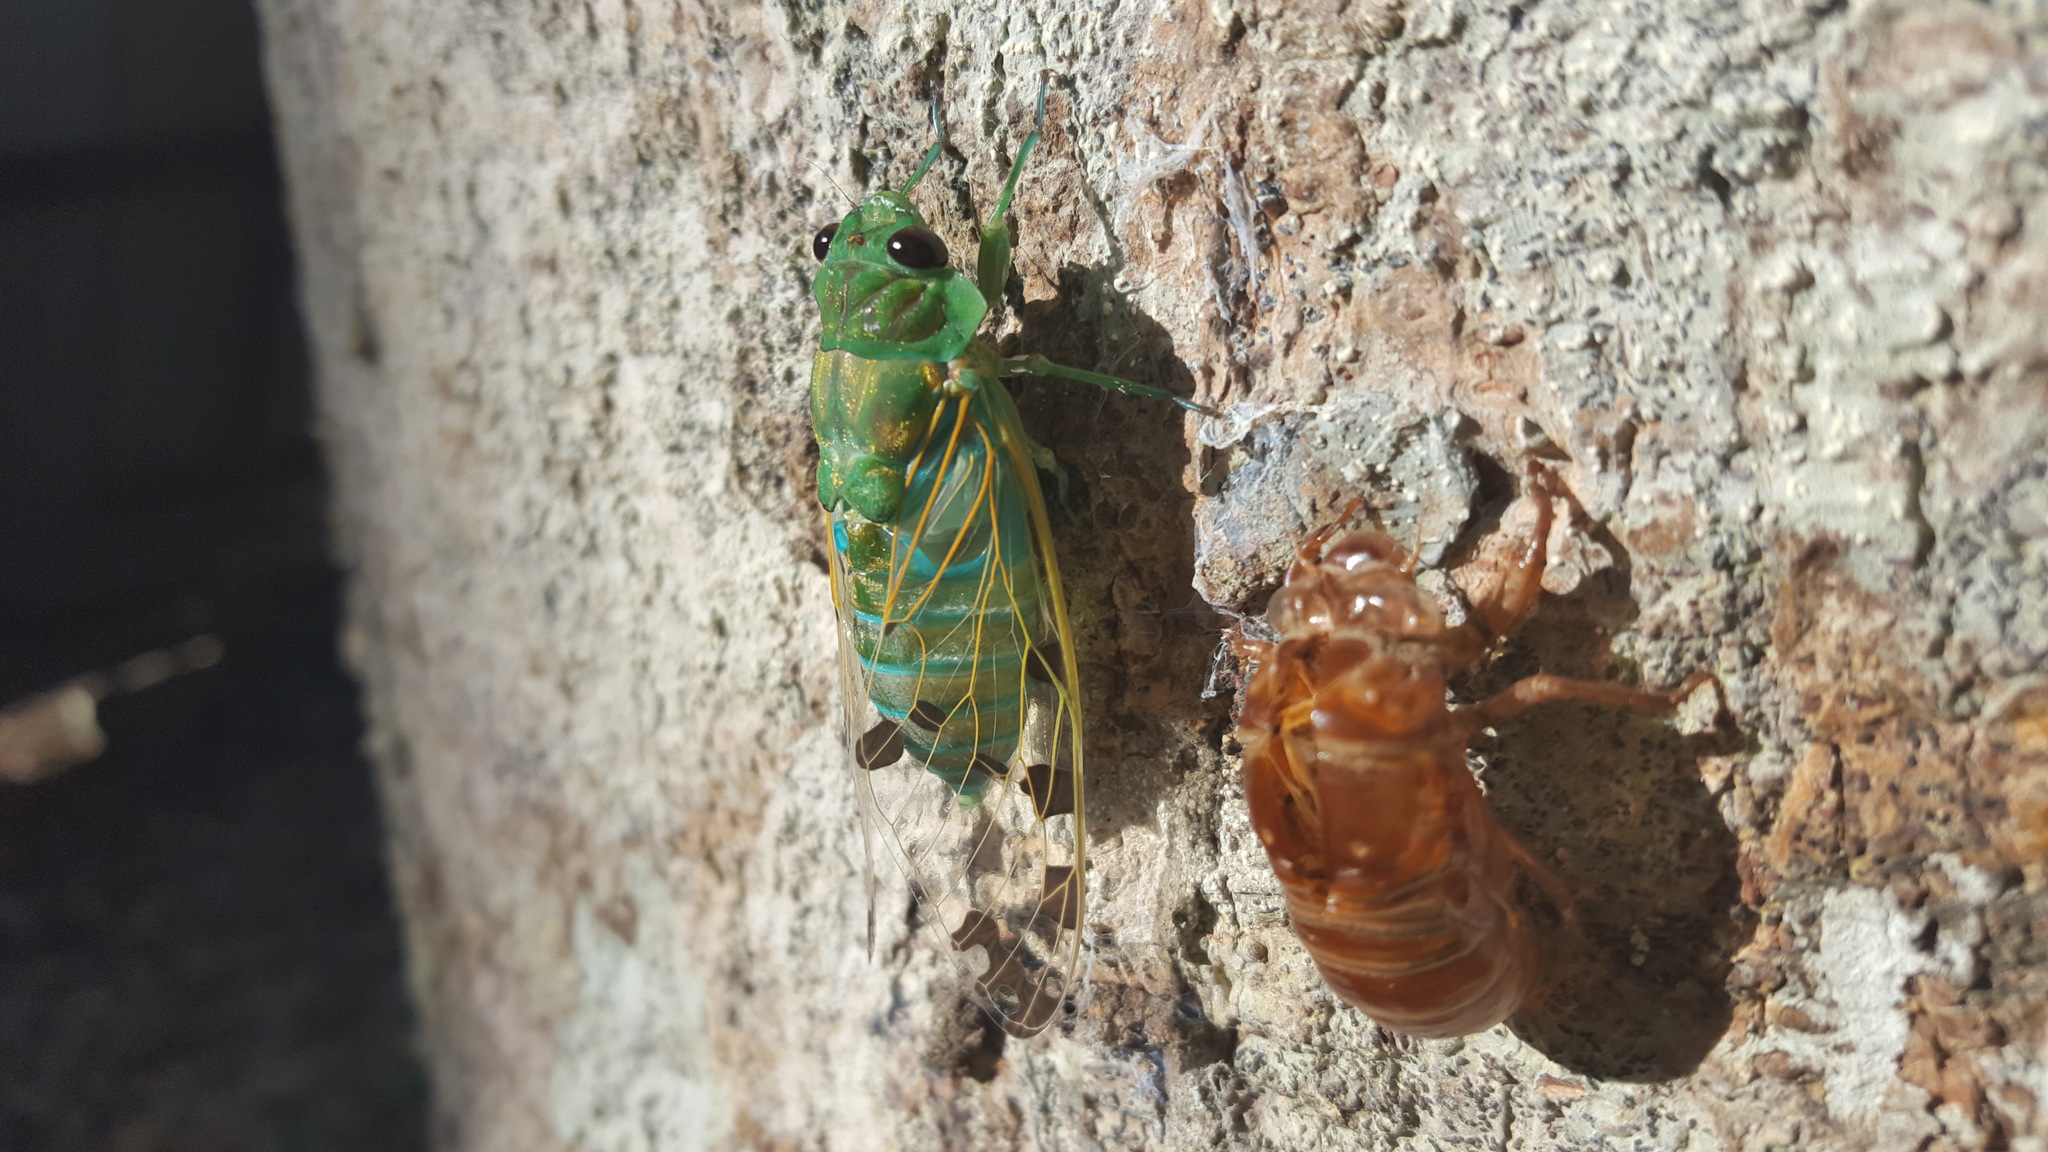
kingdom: Animalia
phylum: Arthropoda
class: Insecta
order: Hemiptera
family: Cicadidae
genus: Zammara
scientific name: Zammara smaragdina
